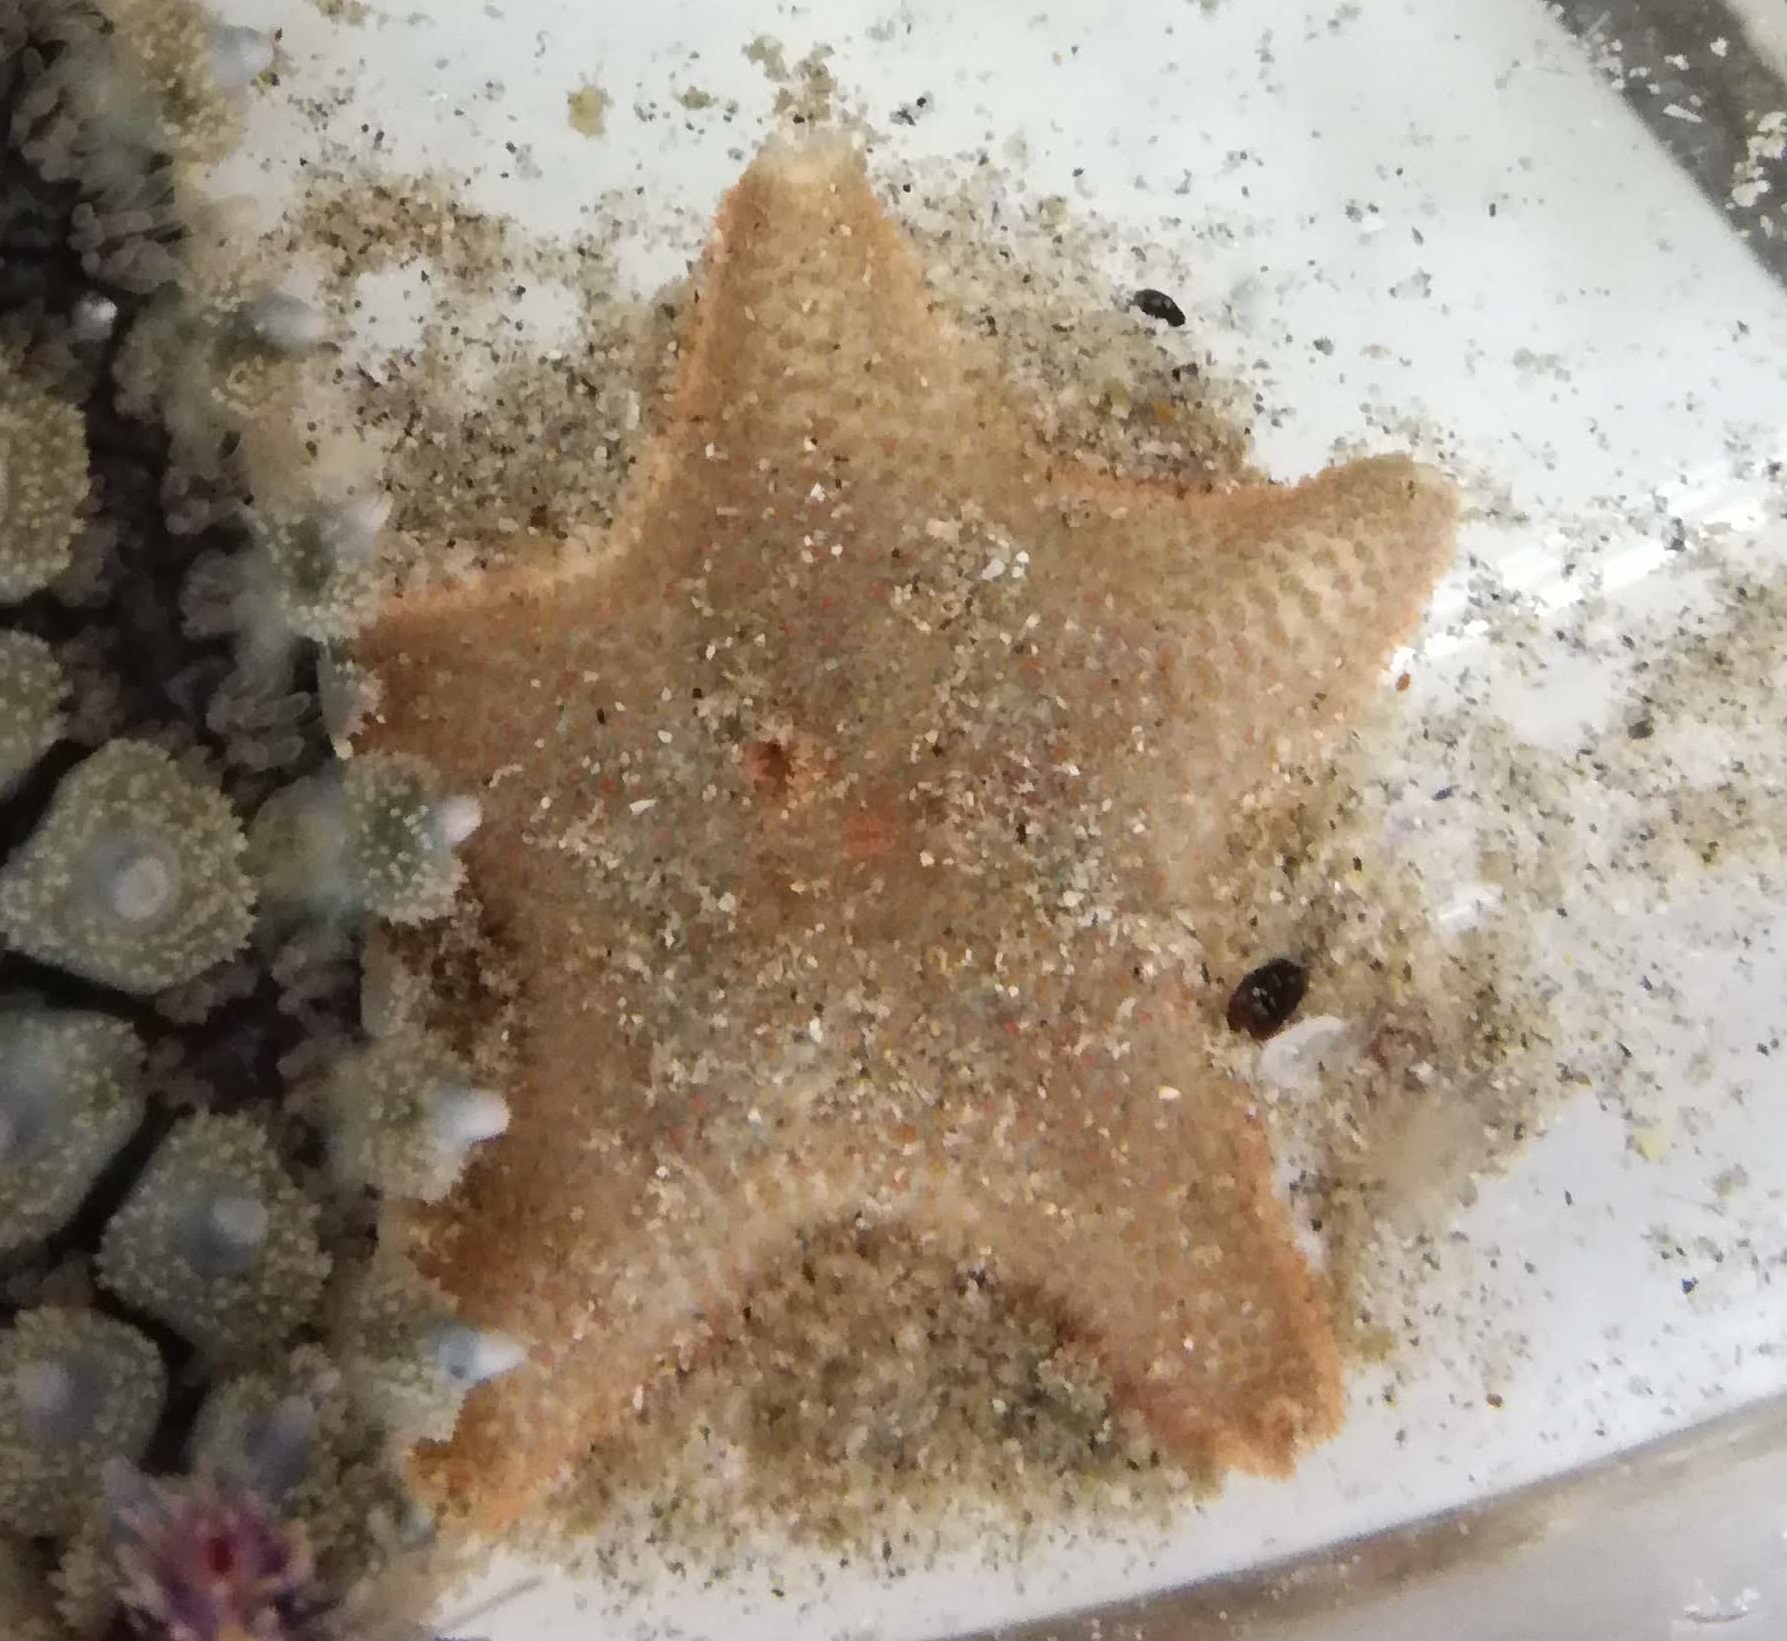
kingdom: Animalia
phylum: Echinodermata
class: Asteroidea
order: Valvatida
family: Asterinidae
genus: Asterina
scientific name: Asterina gibbosa
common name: Cushion star
